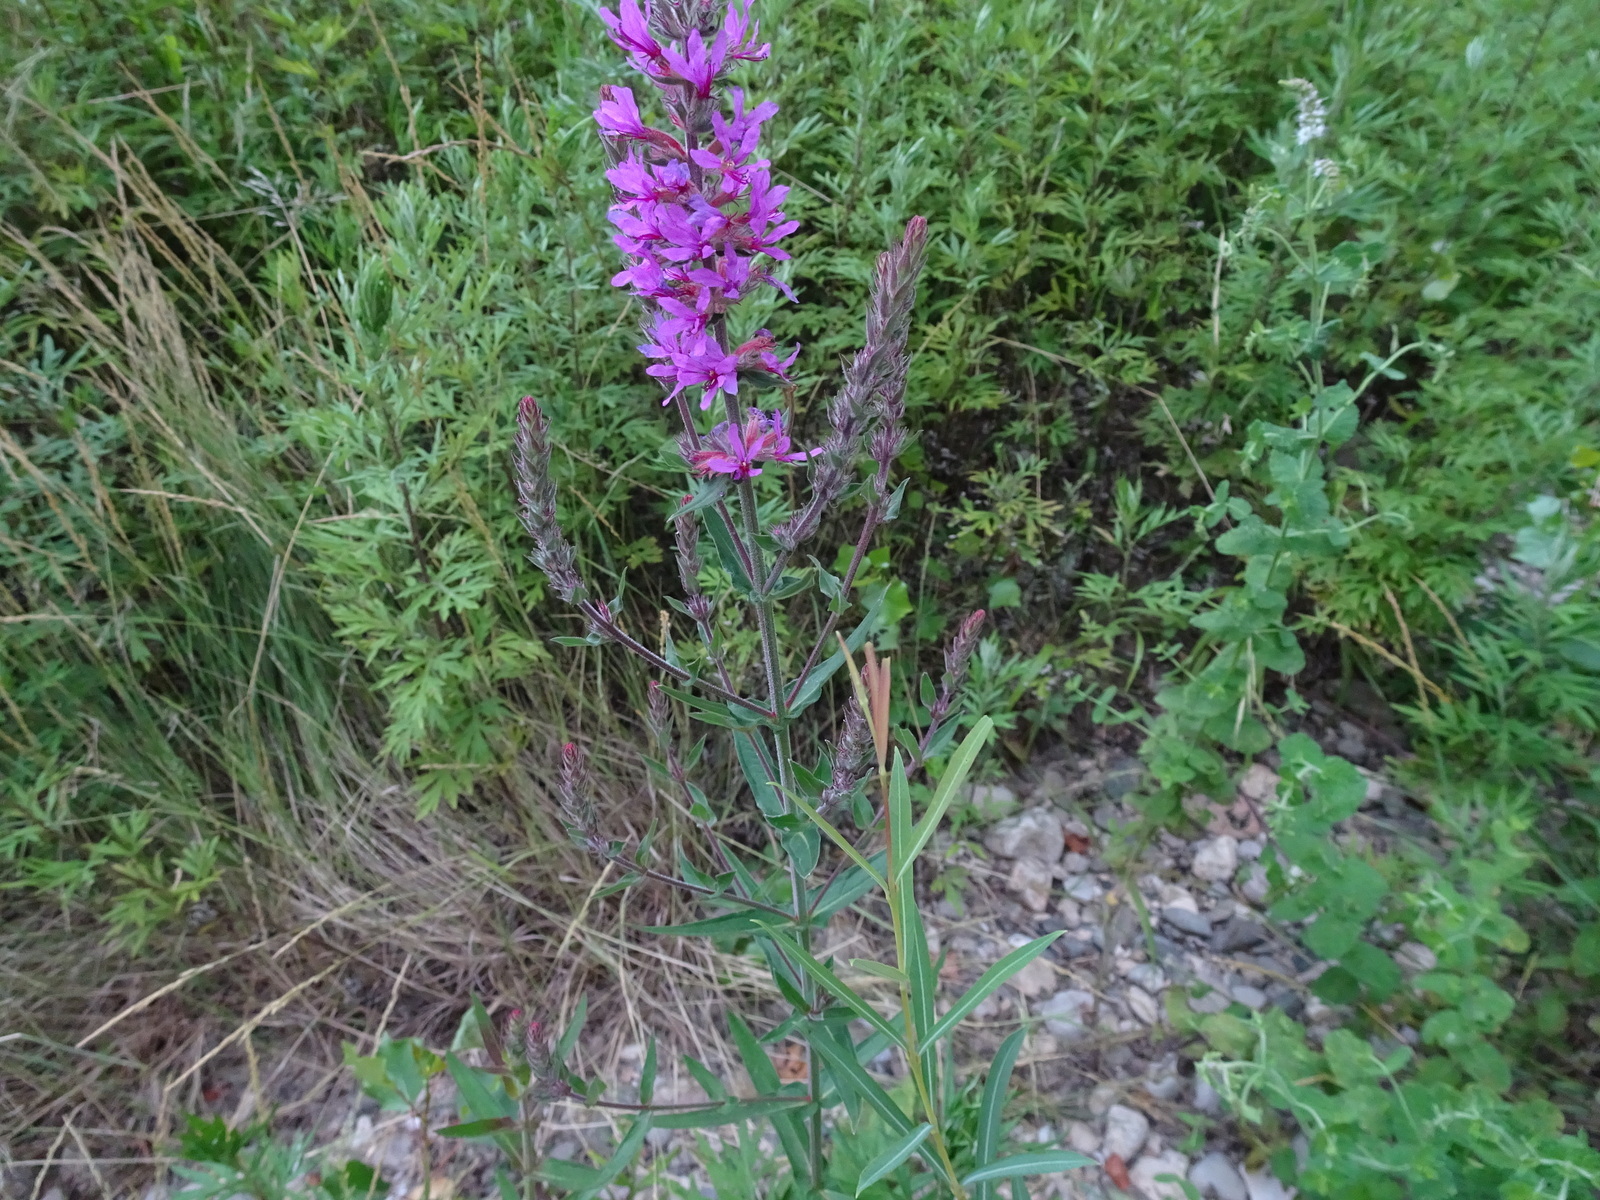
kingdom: Plantae
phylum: Tracheophyta
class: Magnoliopsida
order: Myrtales
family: Lythraceae
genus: Lythrum
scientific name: Lythrum salicaria
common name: Purple loosestrife
